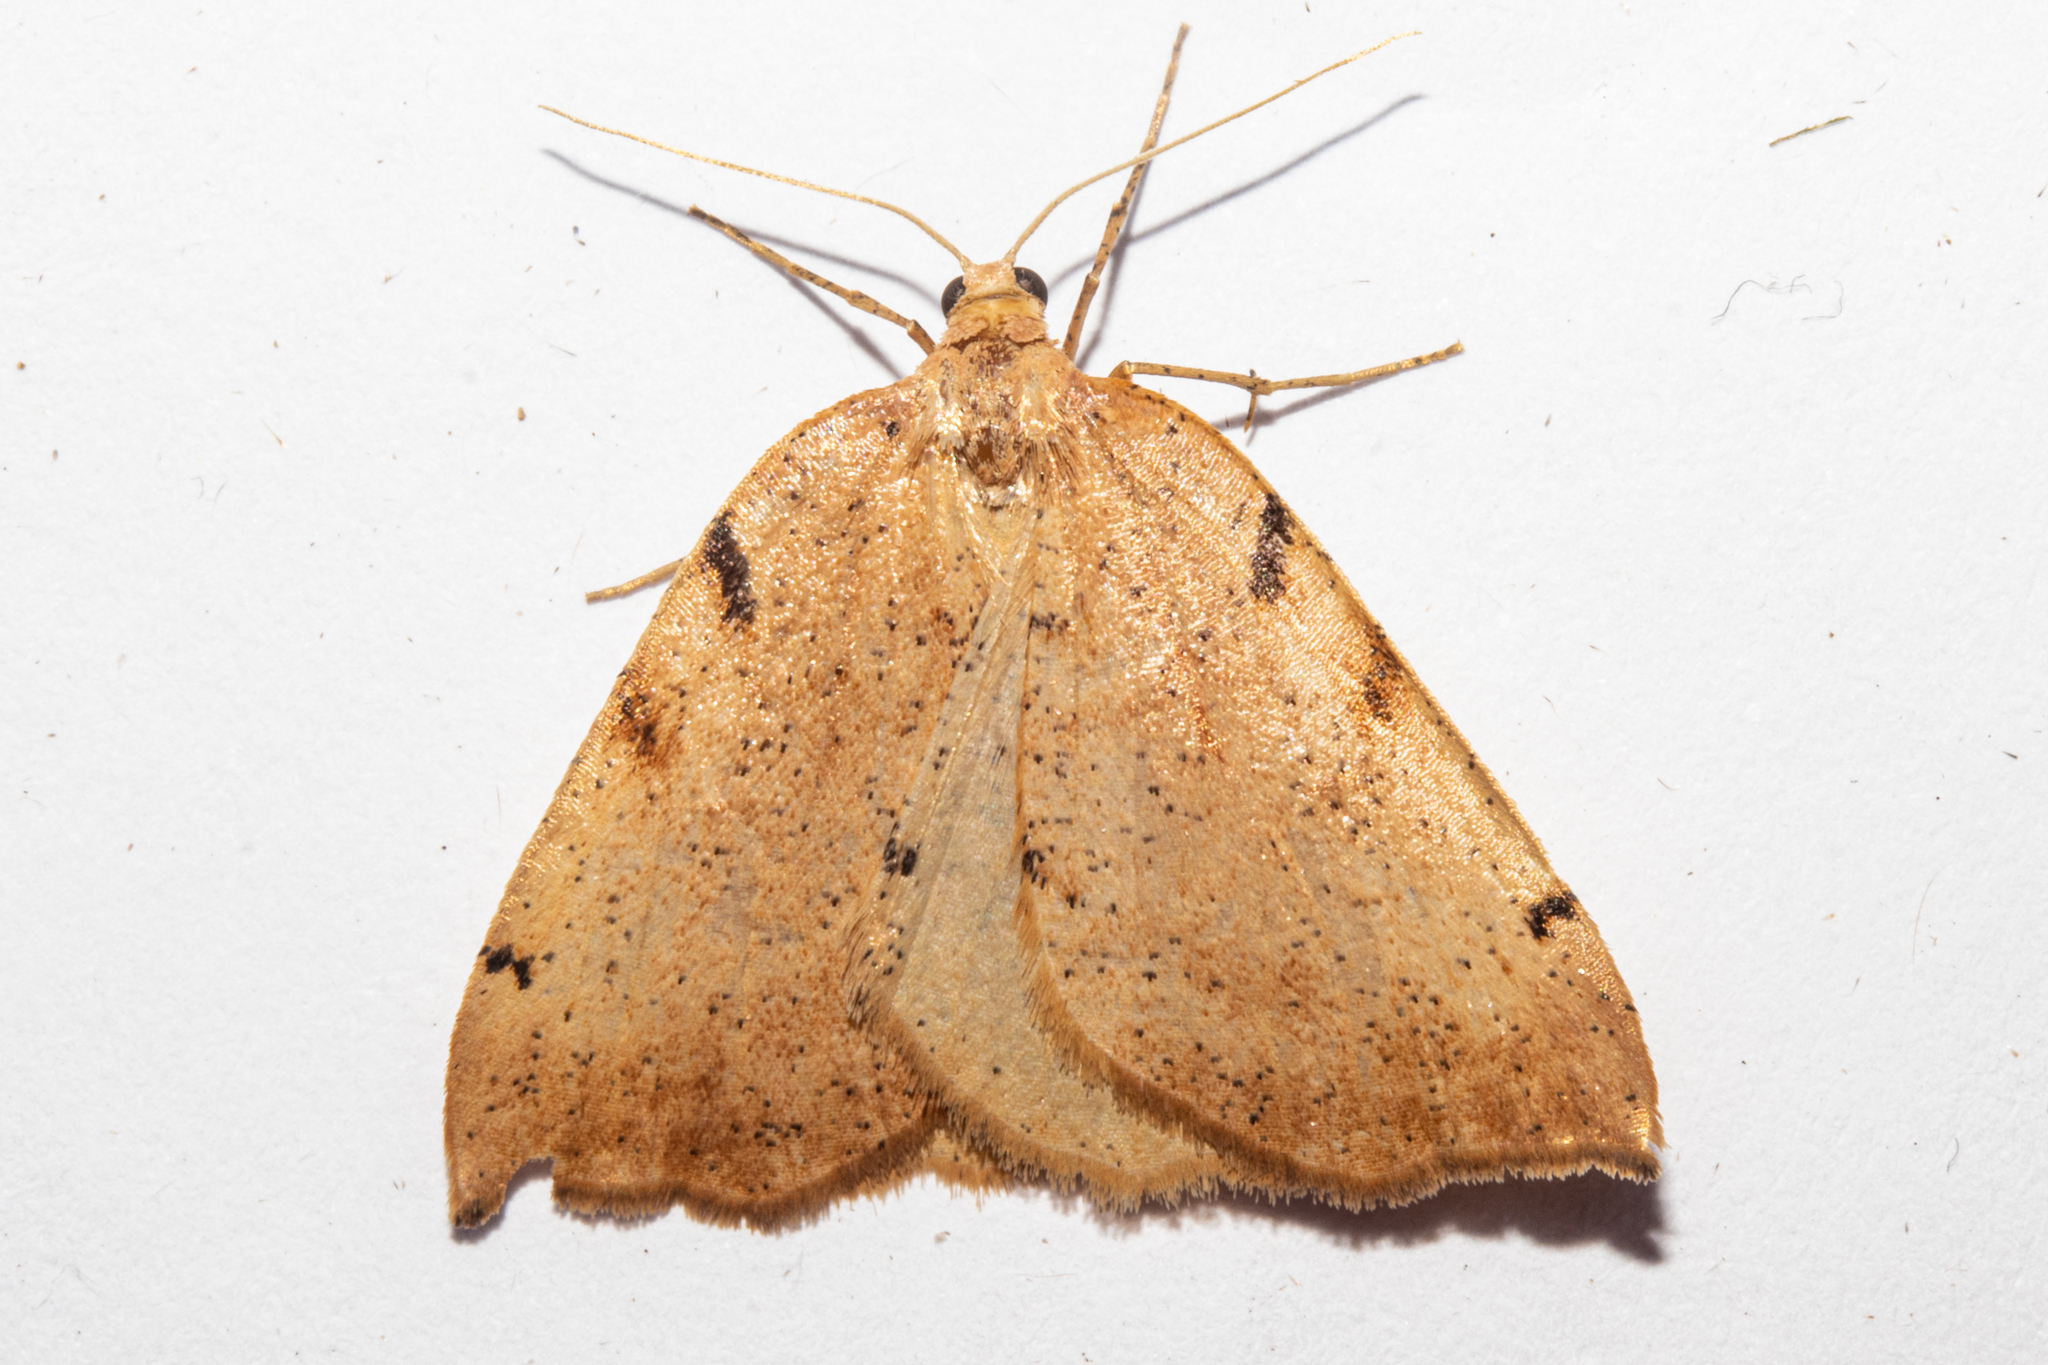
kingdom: Animalia
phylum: Arthropoda
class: Insecta
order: Lepidoptera
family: Geometridae
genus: Sestra
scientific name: Sestra humeraria
